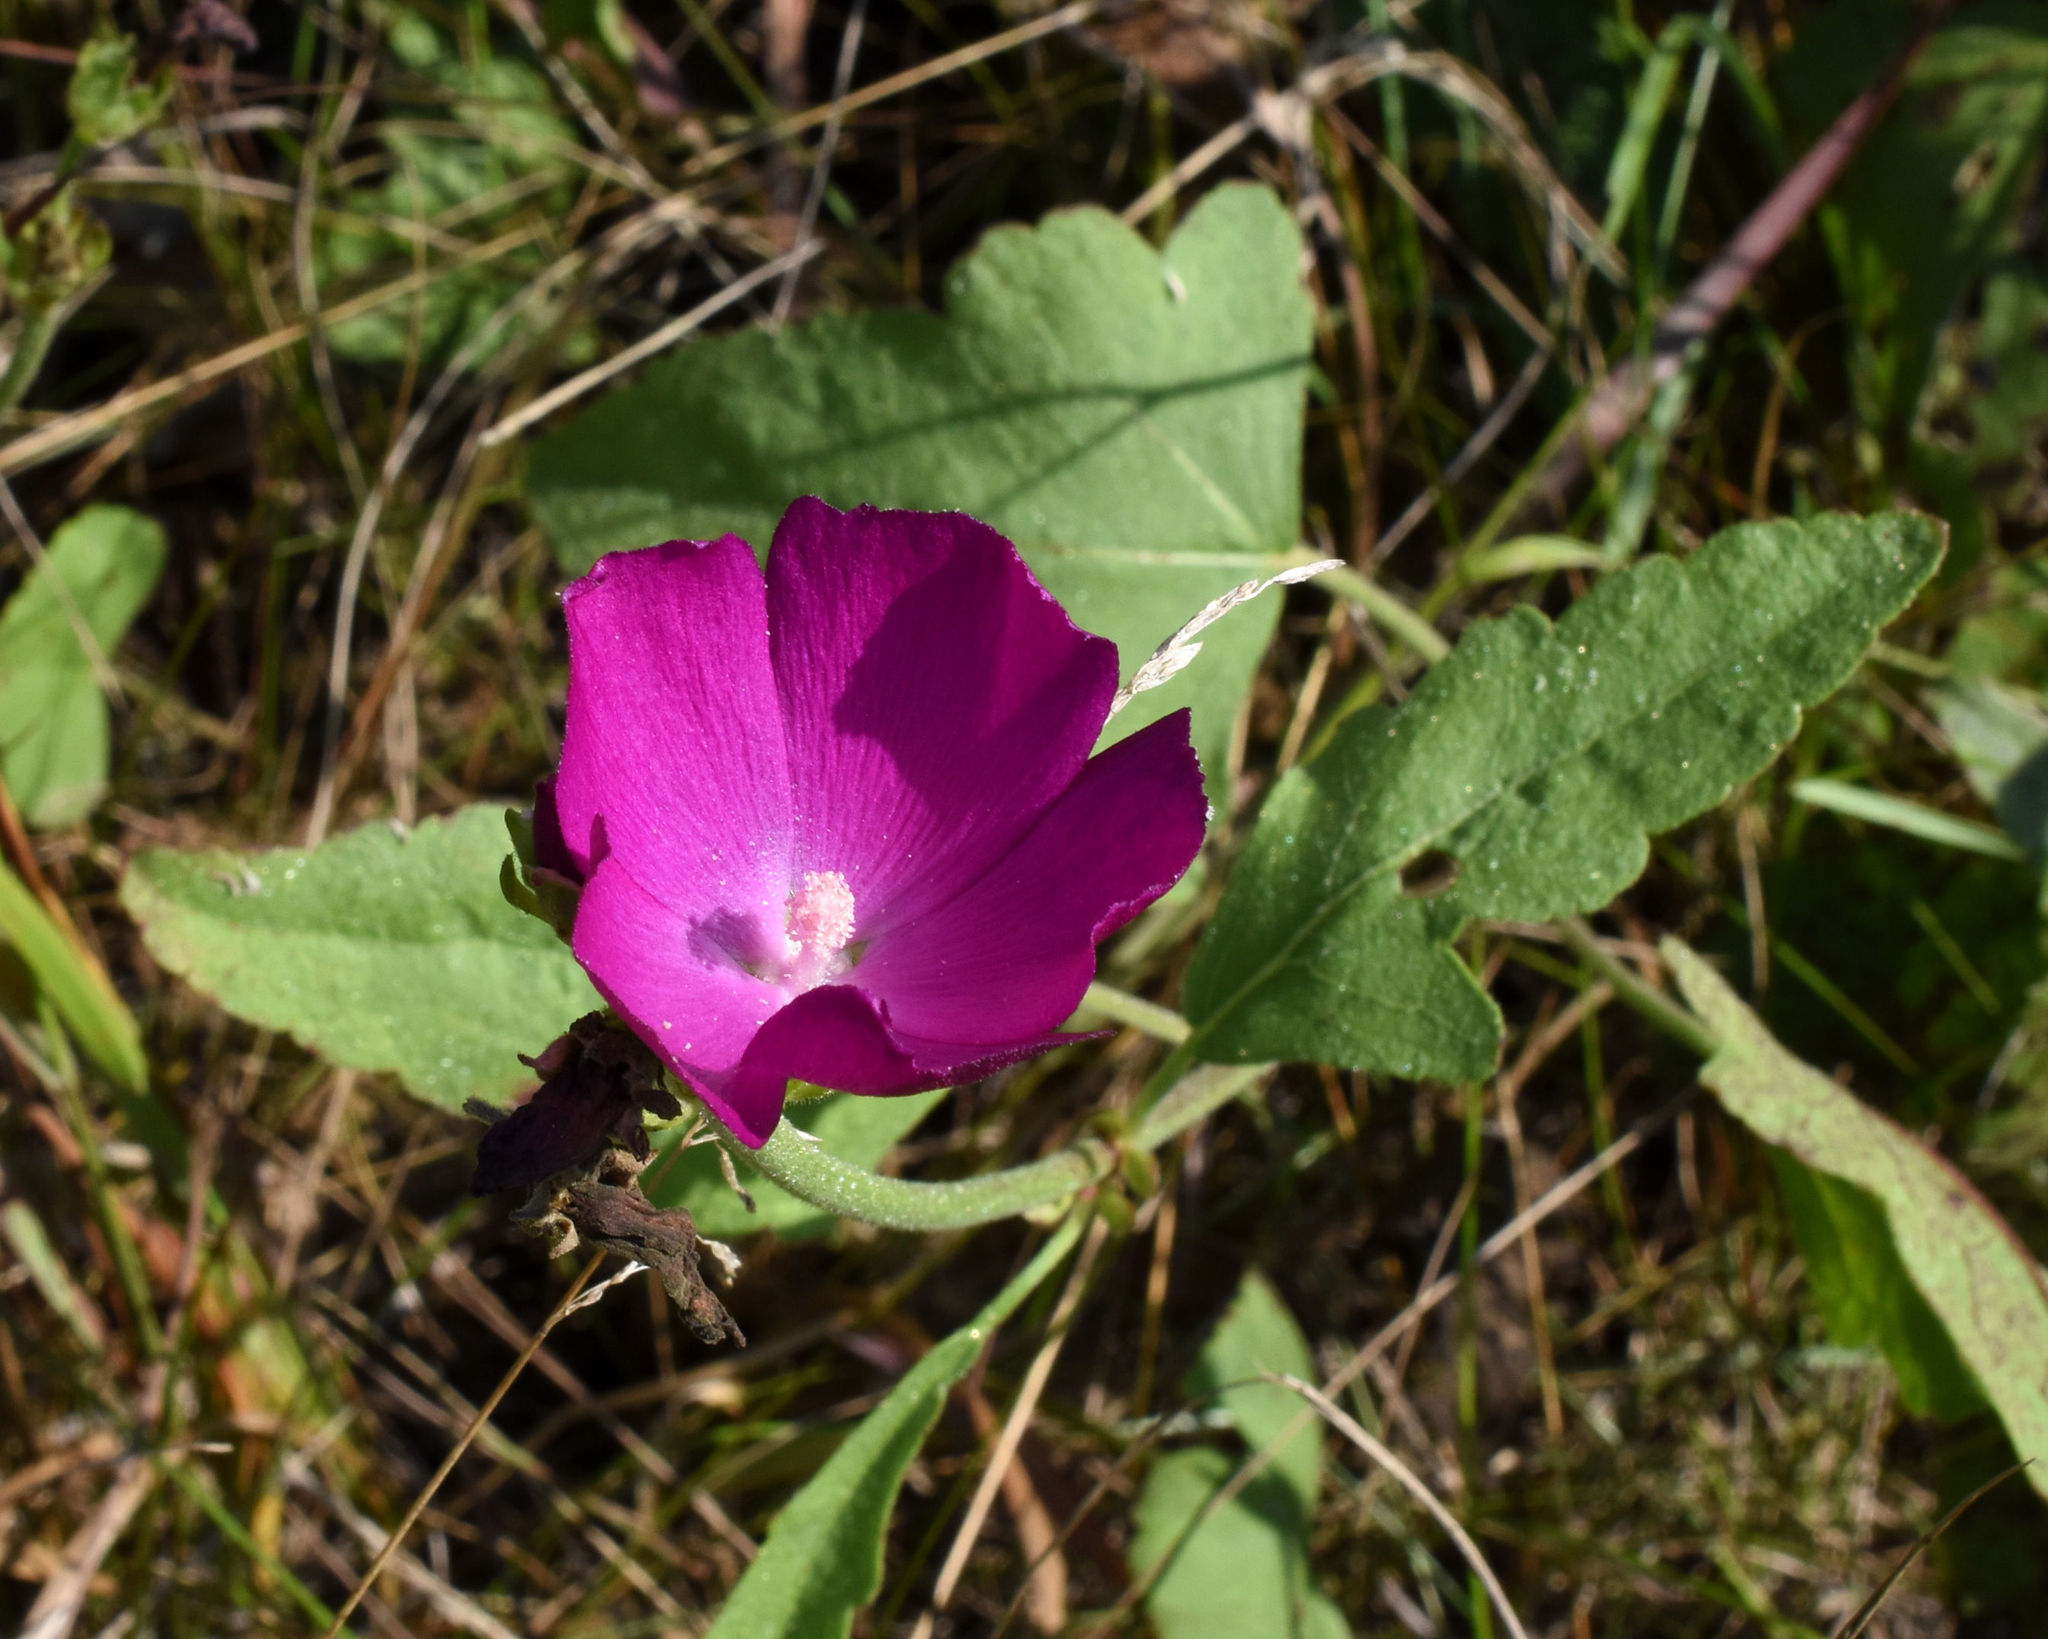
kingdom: Plantae
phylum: Tracheophyta
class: Magnoliopsida
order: Malvales
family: Malvaceae
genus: Callirhoe
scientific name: Callirhoe triangulata
